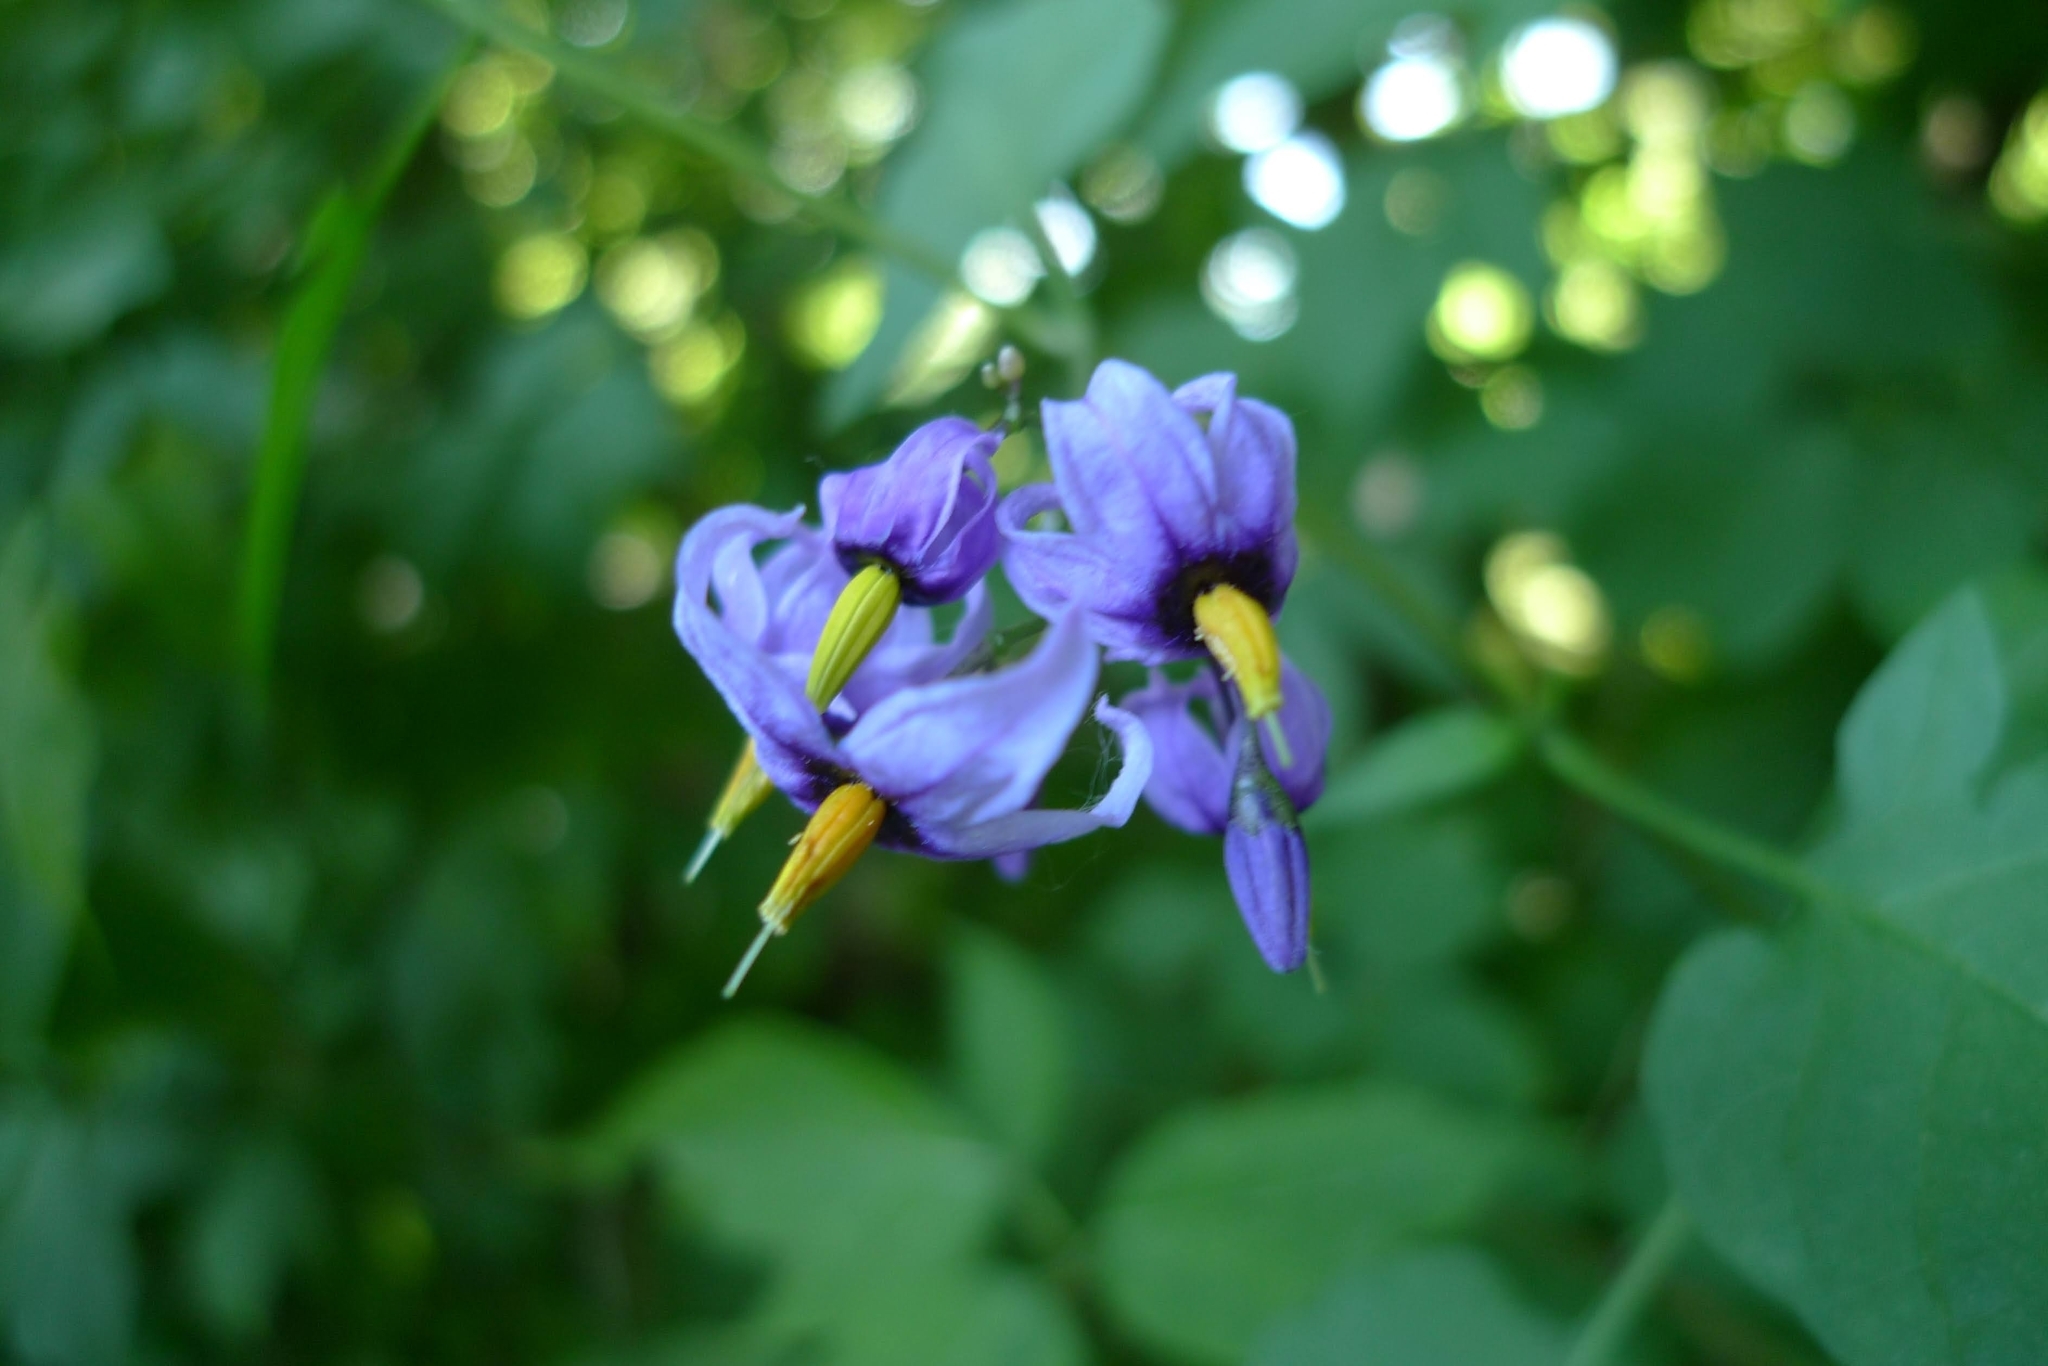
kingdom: Plantae
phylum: Tracheophyta
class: Magnoliopsida
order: Solanales
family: Solanaceae
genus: Solanum
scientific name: Solanum dulcamara
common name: Climbing nightshade
